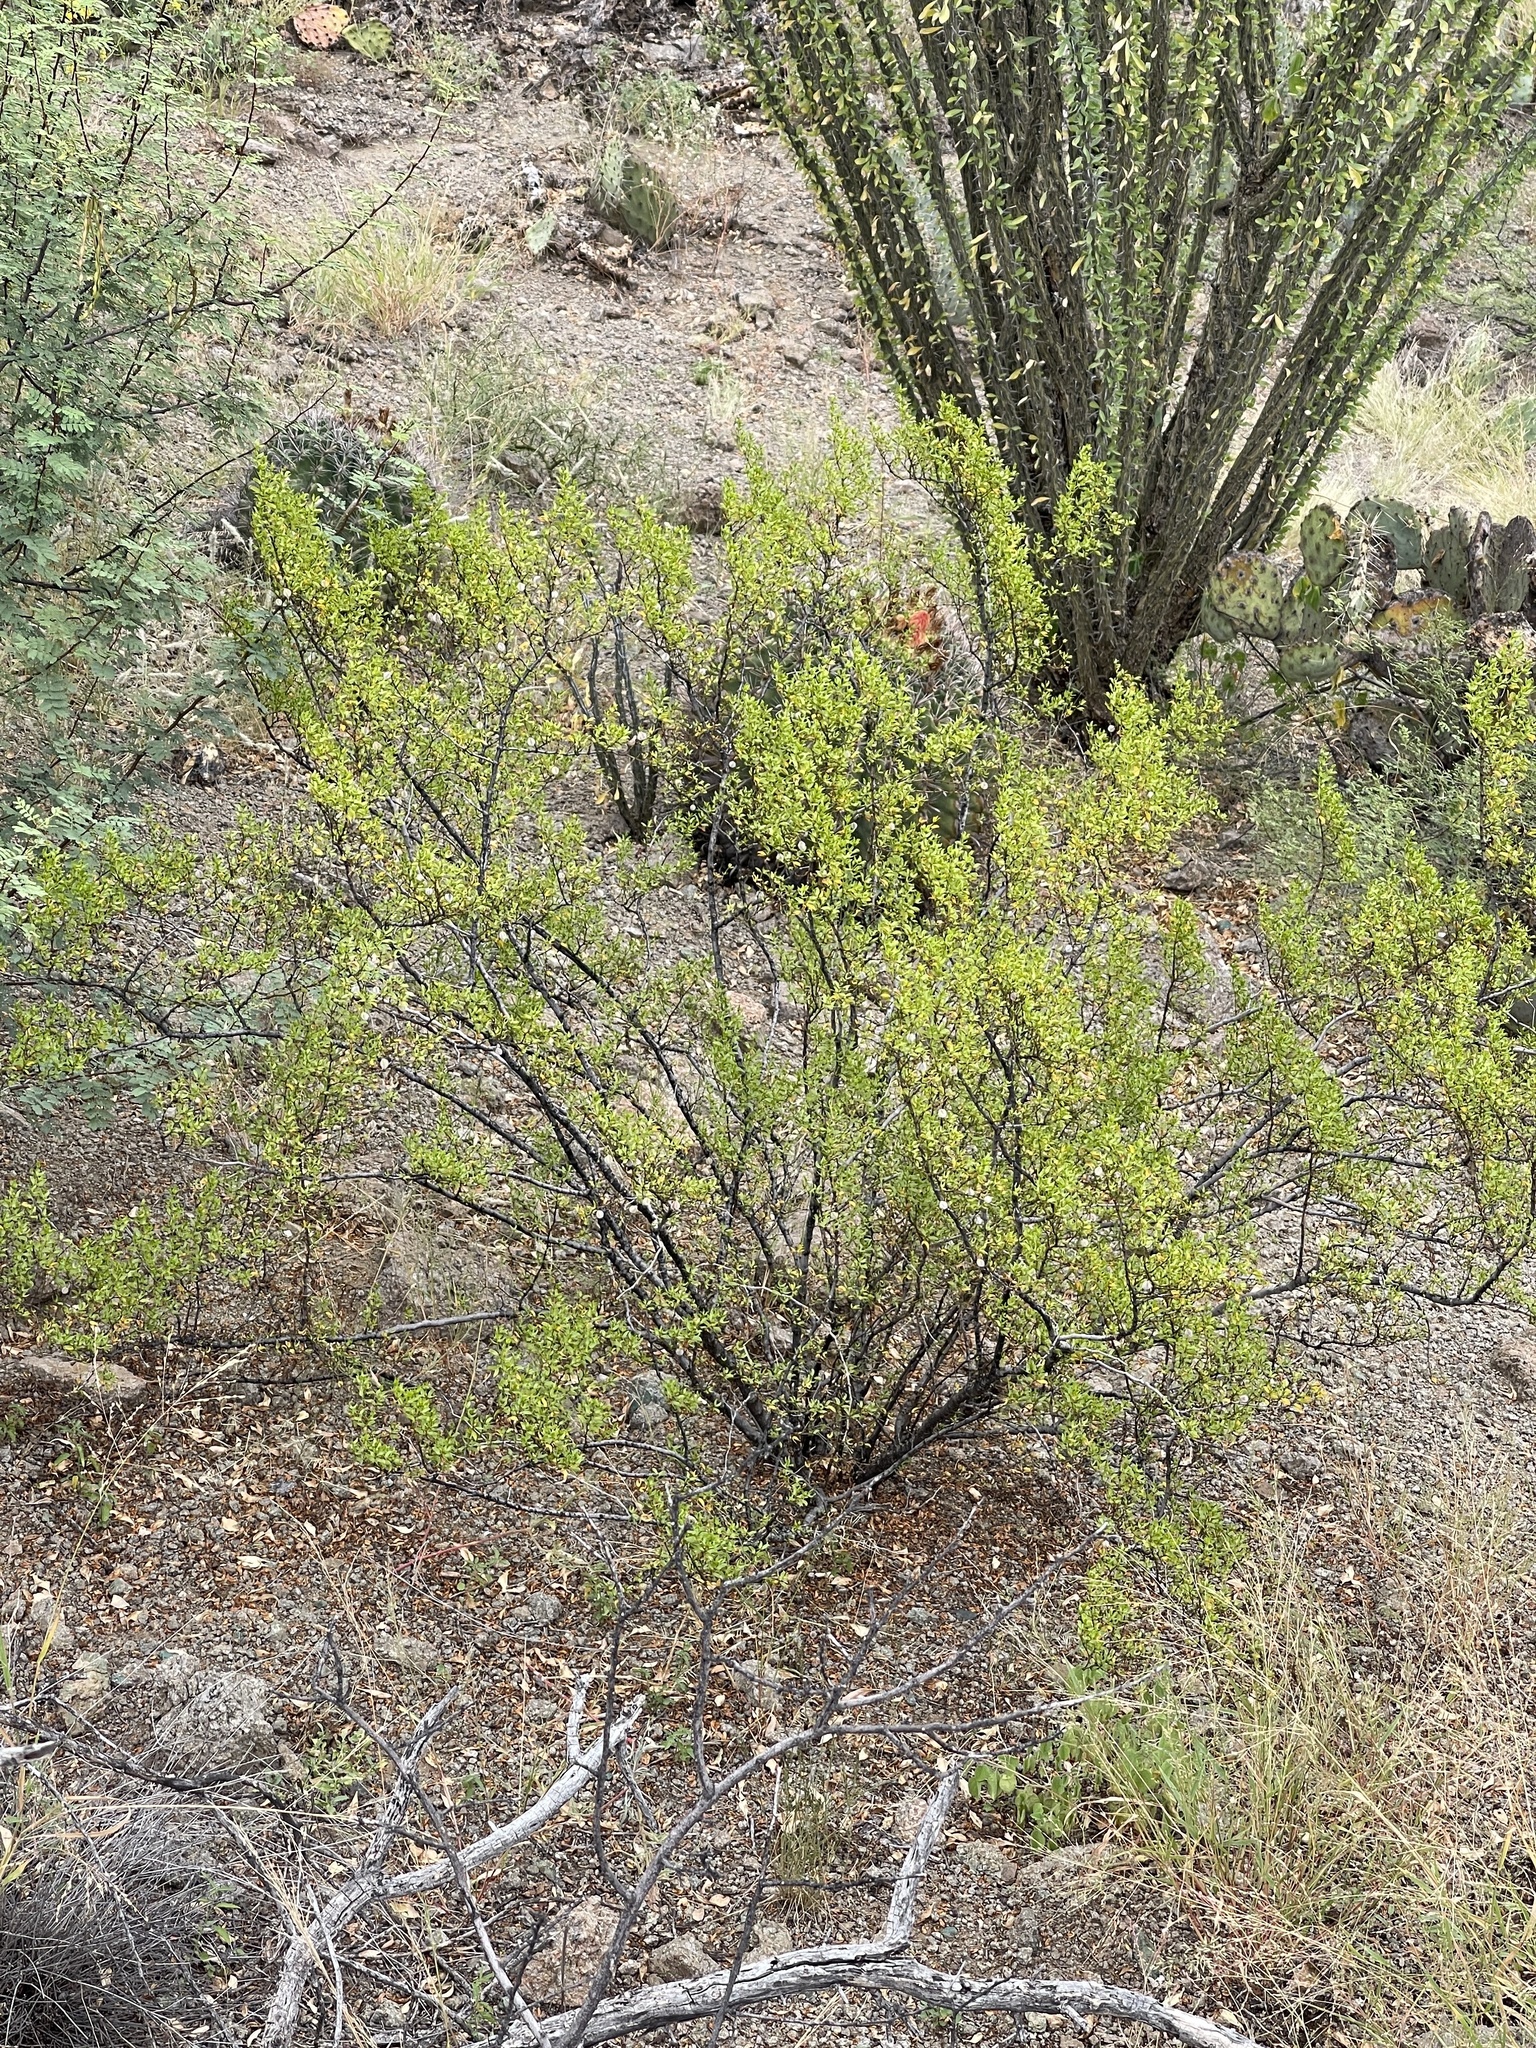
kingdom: Plantae
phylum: Tracheophyta
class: Magnoliopsida
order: Zygophyllales
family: Zygophyllaceae
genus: Larrea
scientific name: Larrea tridentata
